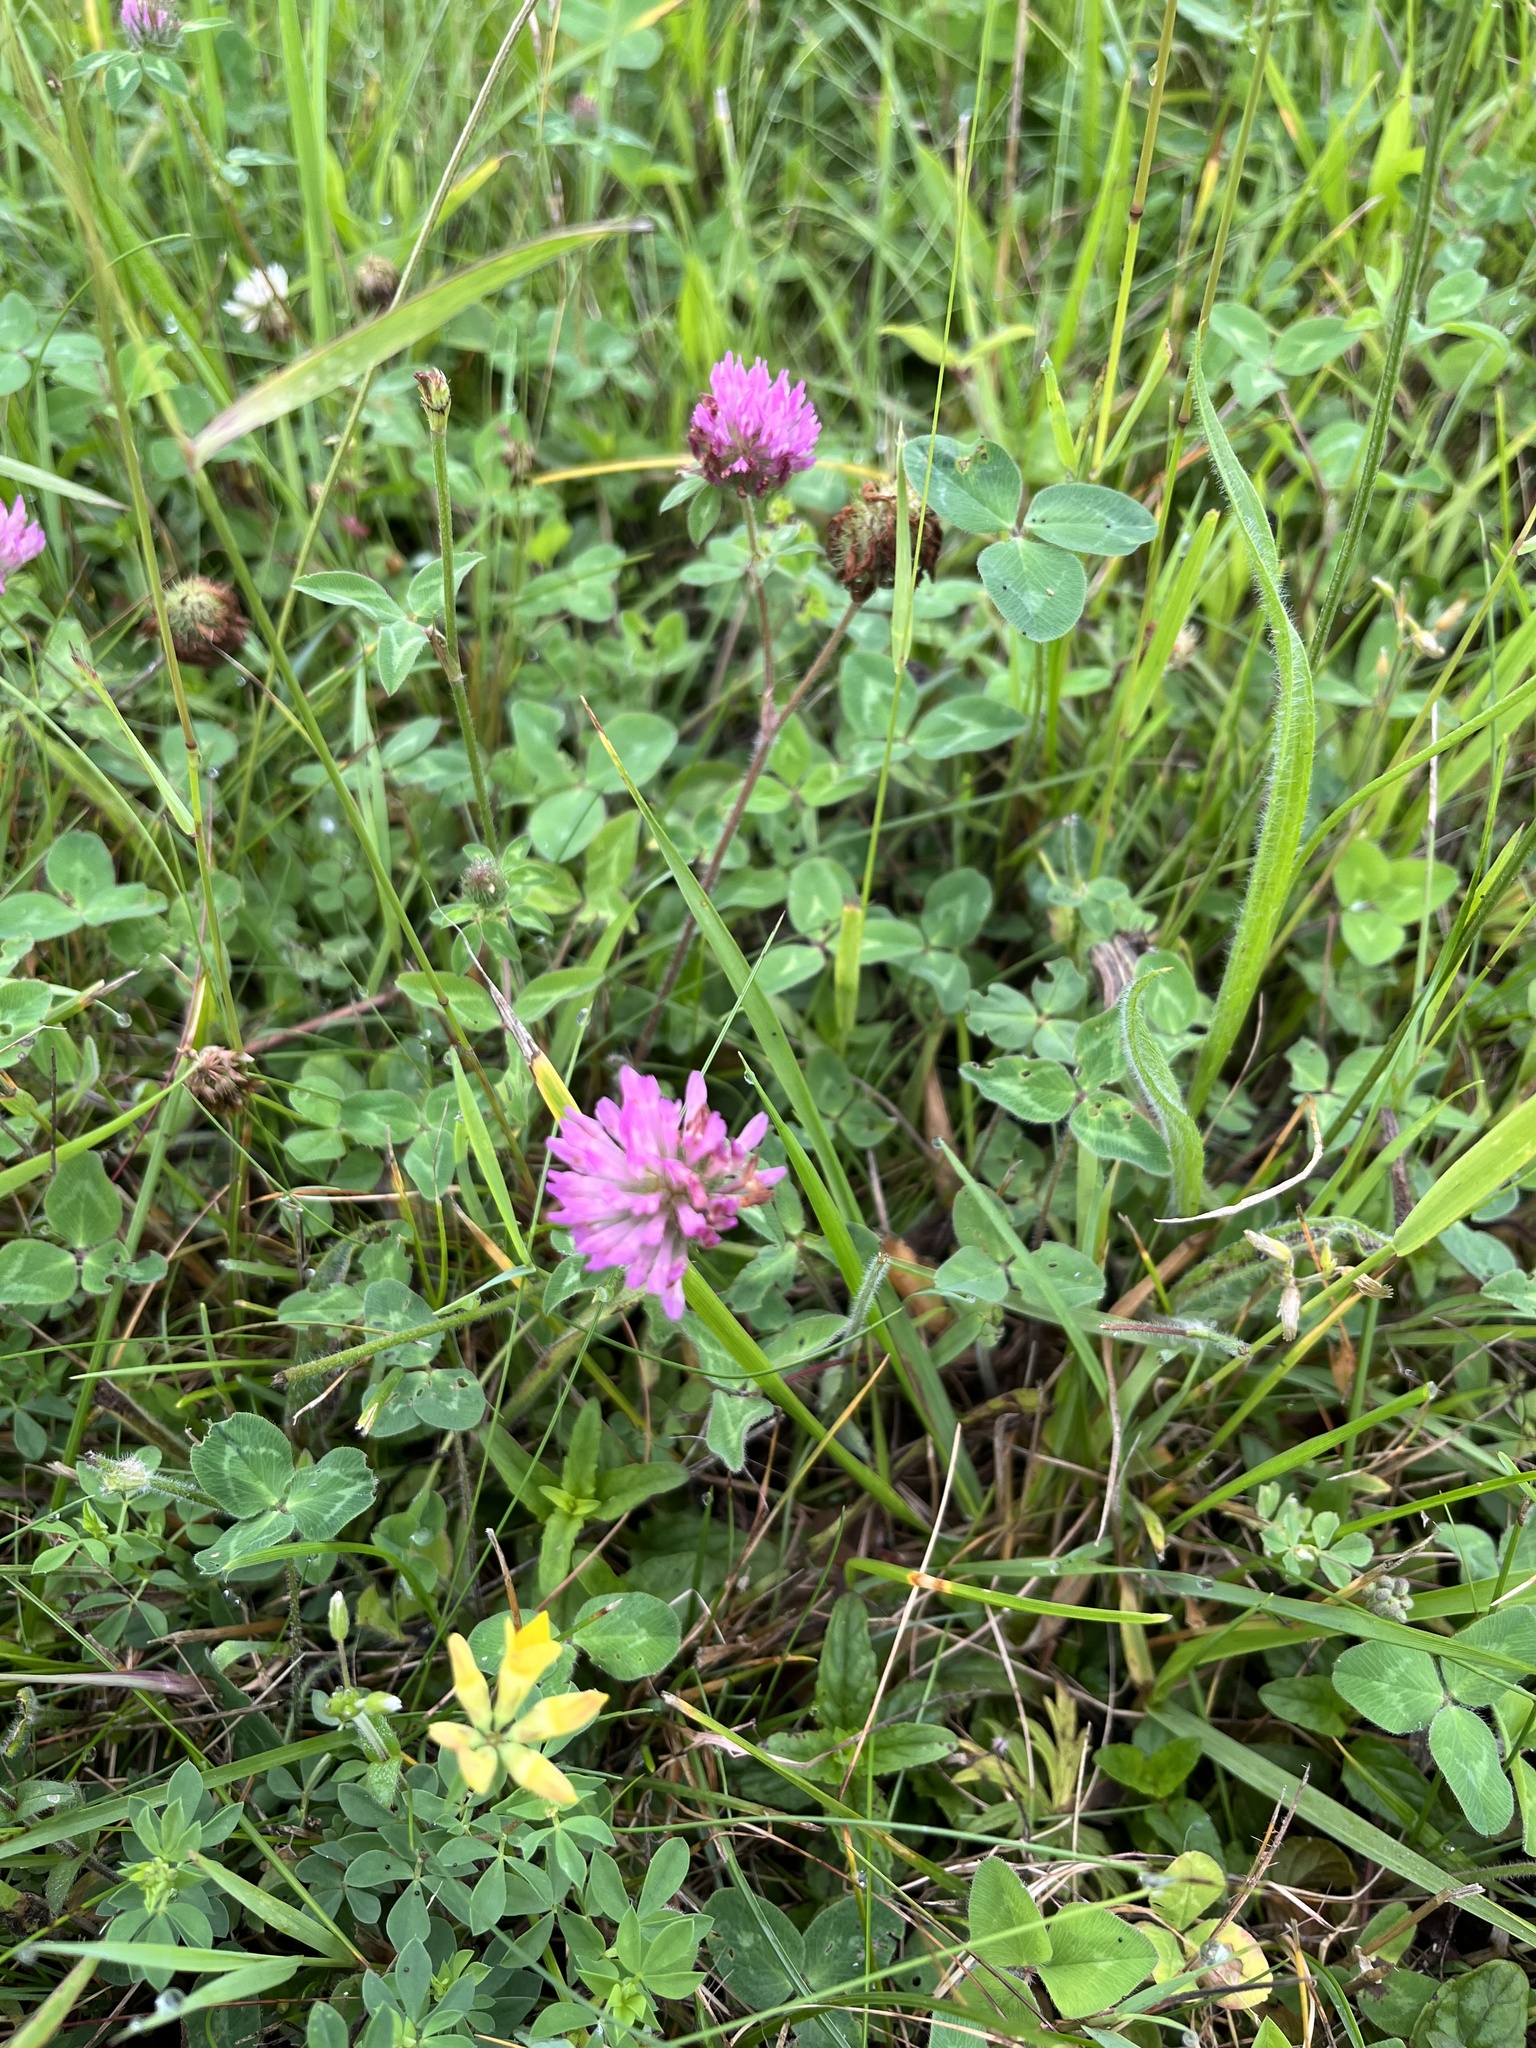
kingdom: Plantae
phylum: Tracheophyta
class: Magnoliopsida
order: Fabales
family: Fabaceae
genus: Trifolium
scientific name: Trifolium pratense
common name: Red clover
